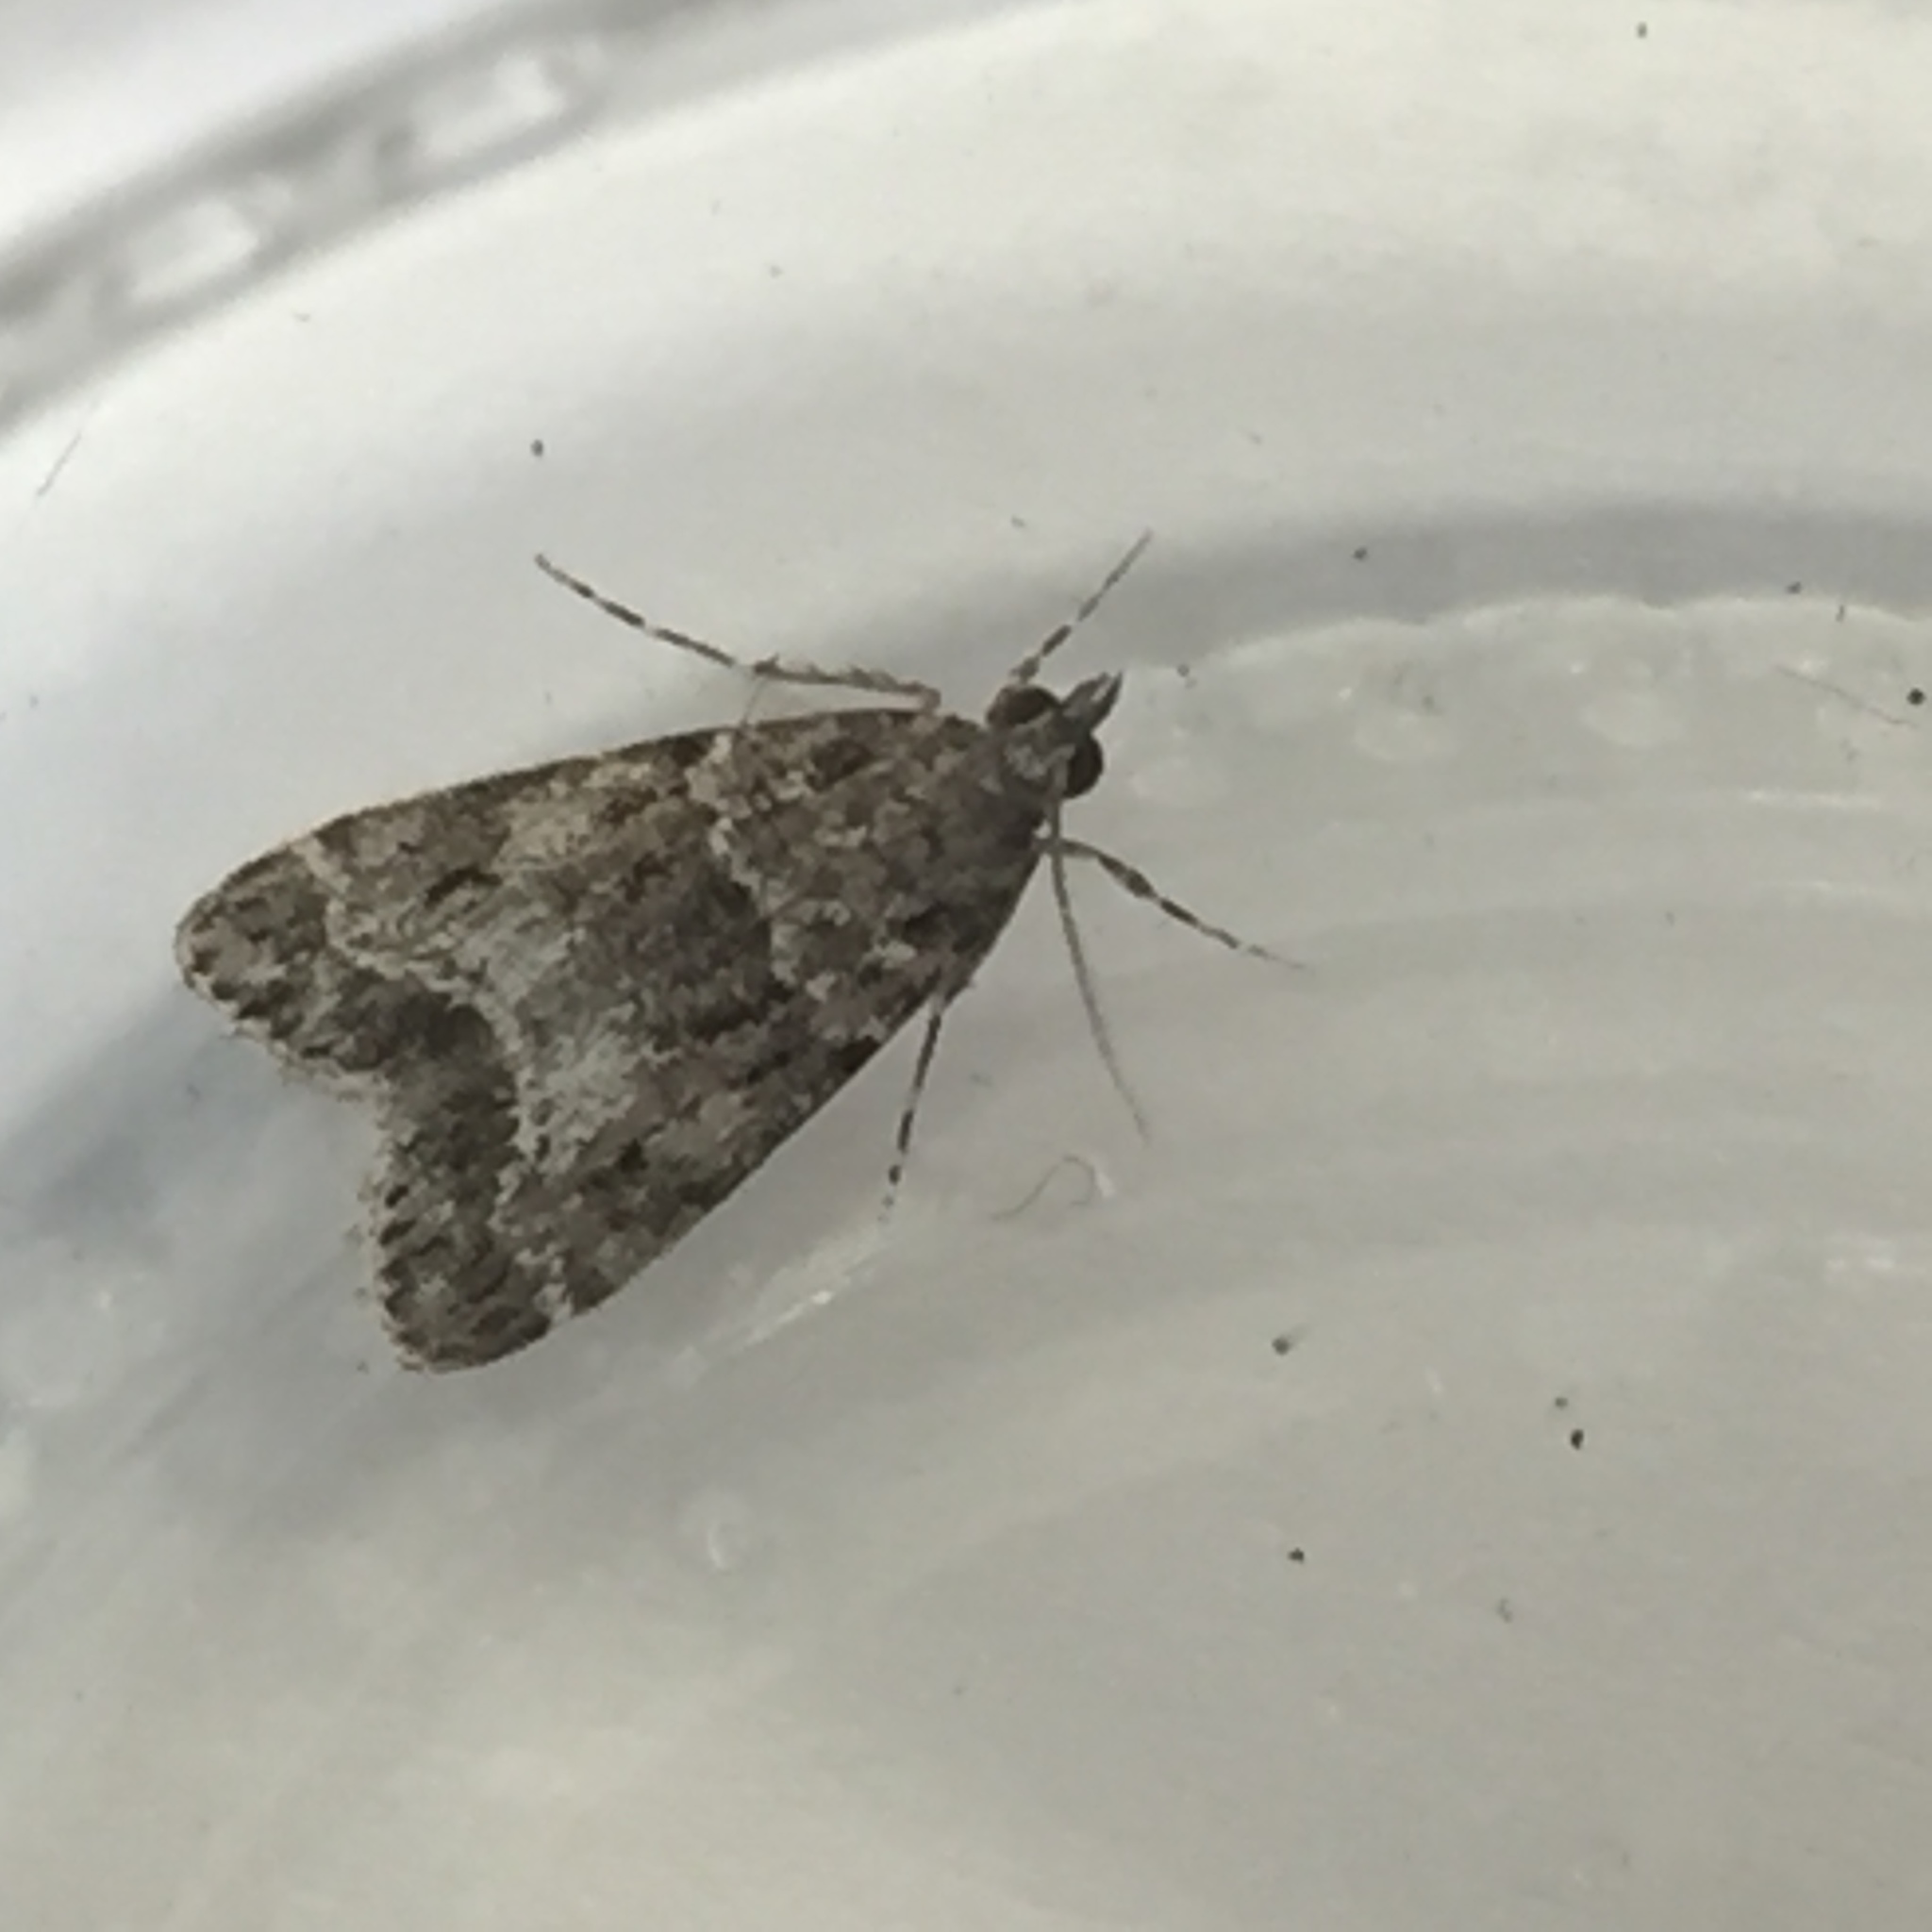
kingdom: Animalia
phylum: Arthropoda
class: Insecta
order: Lepidoptera
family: Crambidae
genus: Eudonia
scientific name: Eudonia mercurella
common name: Small grey
